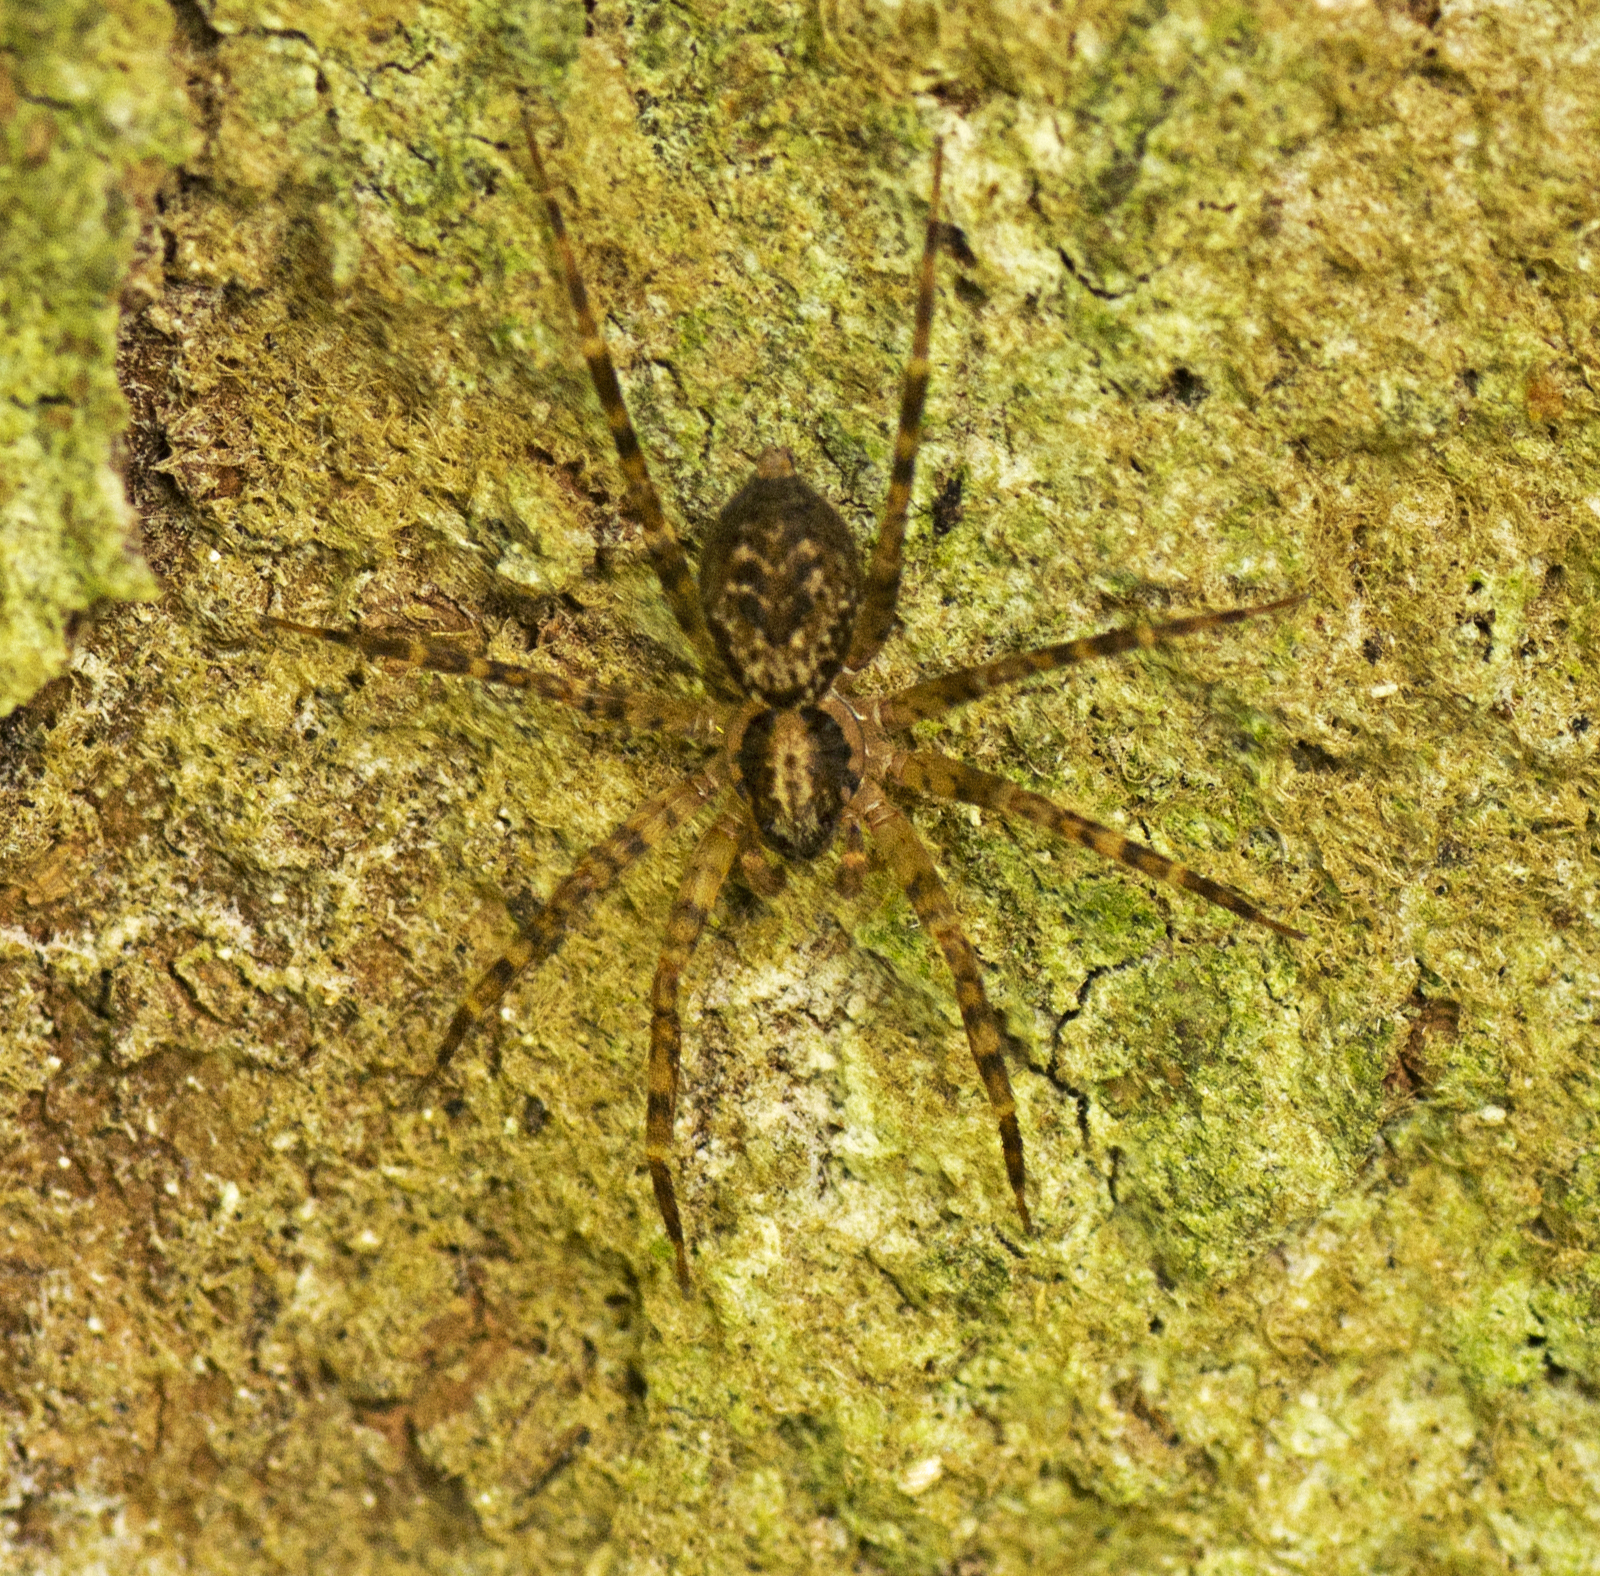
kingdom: Animalia
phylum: Arthropoda
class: Arachnida
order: Araneae
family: Toxopidae
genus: Toxopsoides
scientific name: Toxopsoides erici
